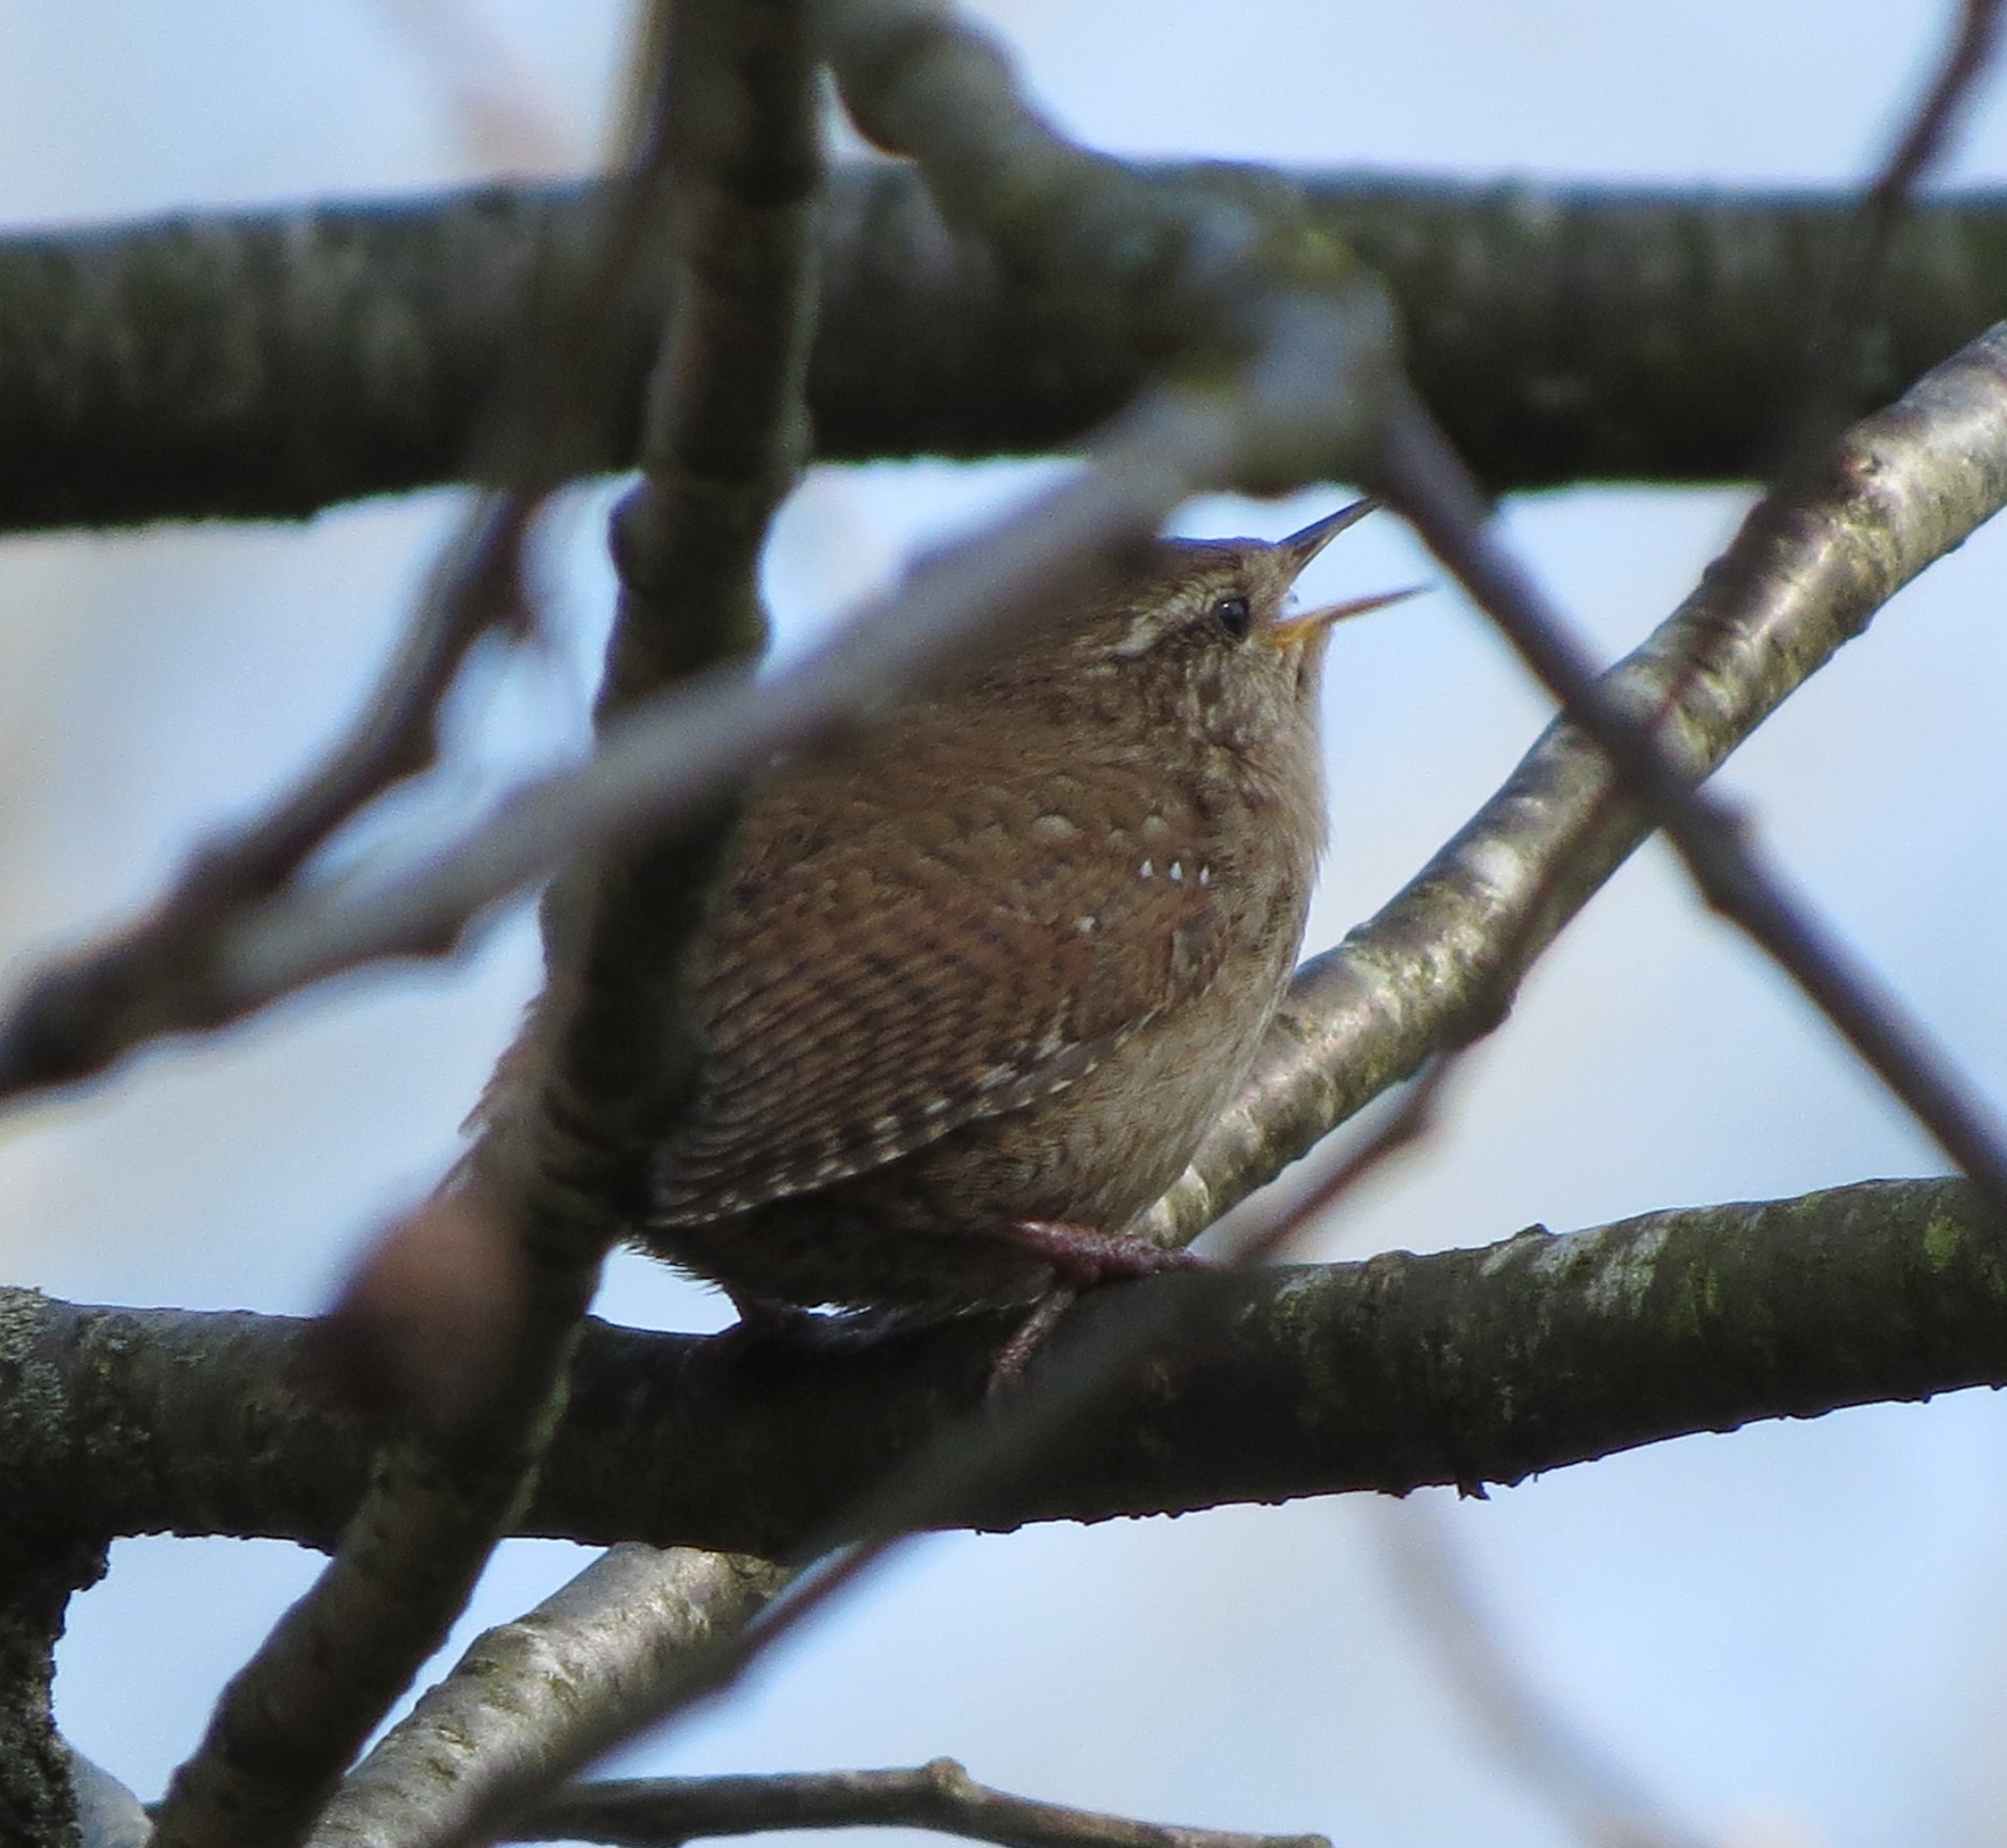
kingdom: Animalia
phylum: Chordata
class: Aves
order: Passeriformes
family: Troglodytidae
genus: Troglodytes
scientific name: Troglodytes troglodytes
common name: Eurasian wren
